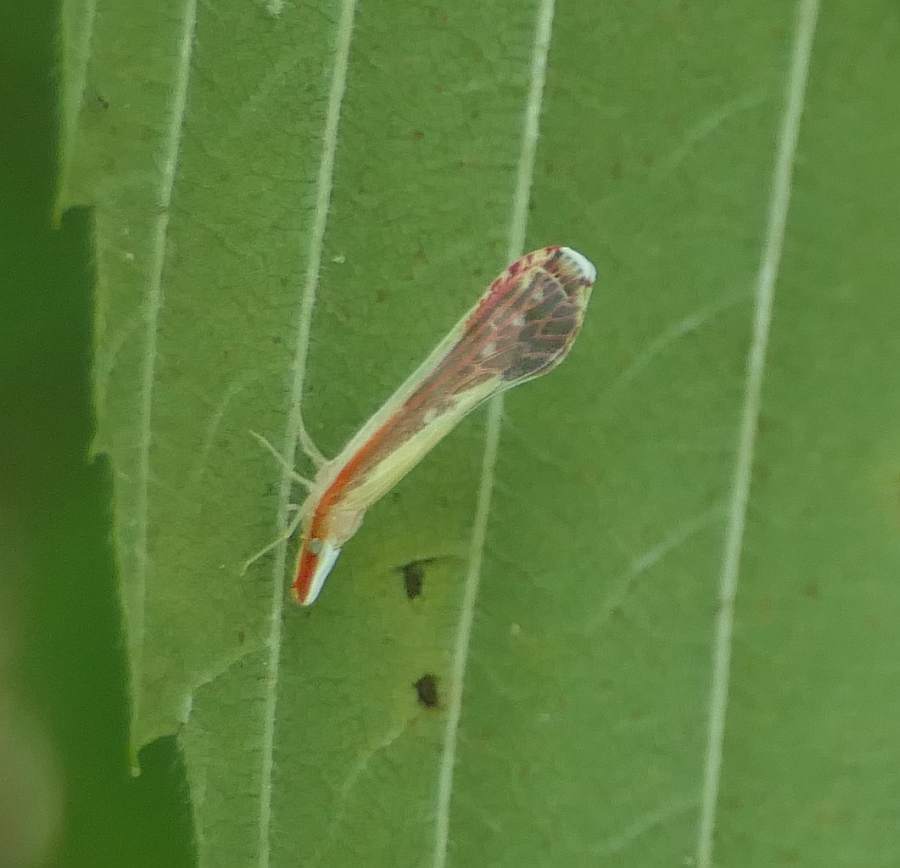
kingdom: Animalia
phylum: Arthropoda
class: Insecta
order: Hemiptera
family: Derbidae
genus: Shellenius
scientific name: Shellenius ballii
